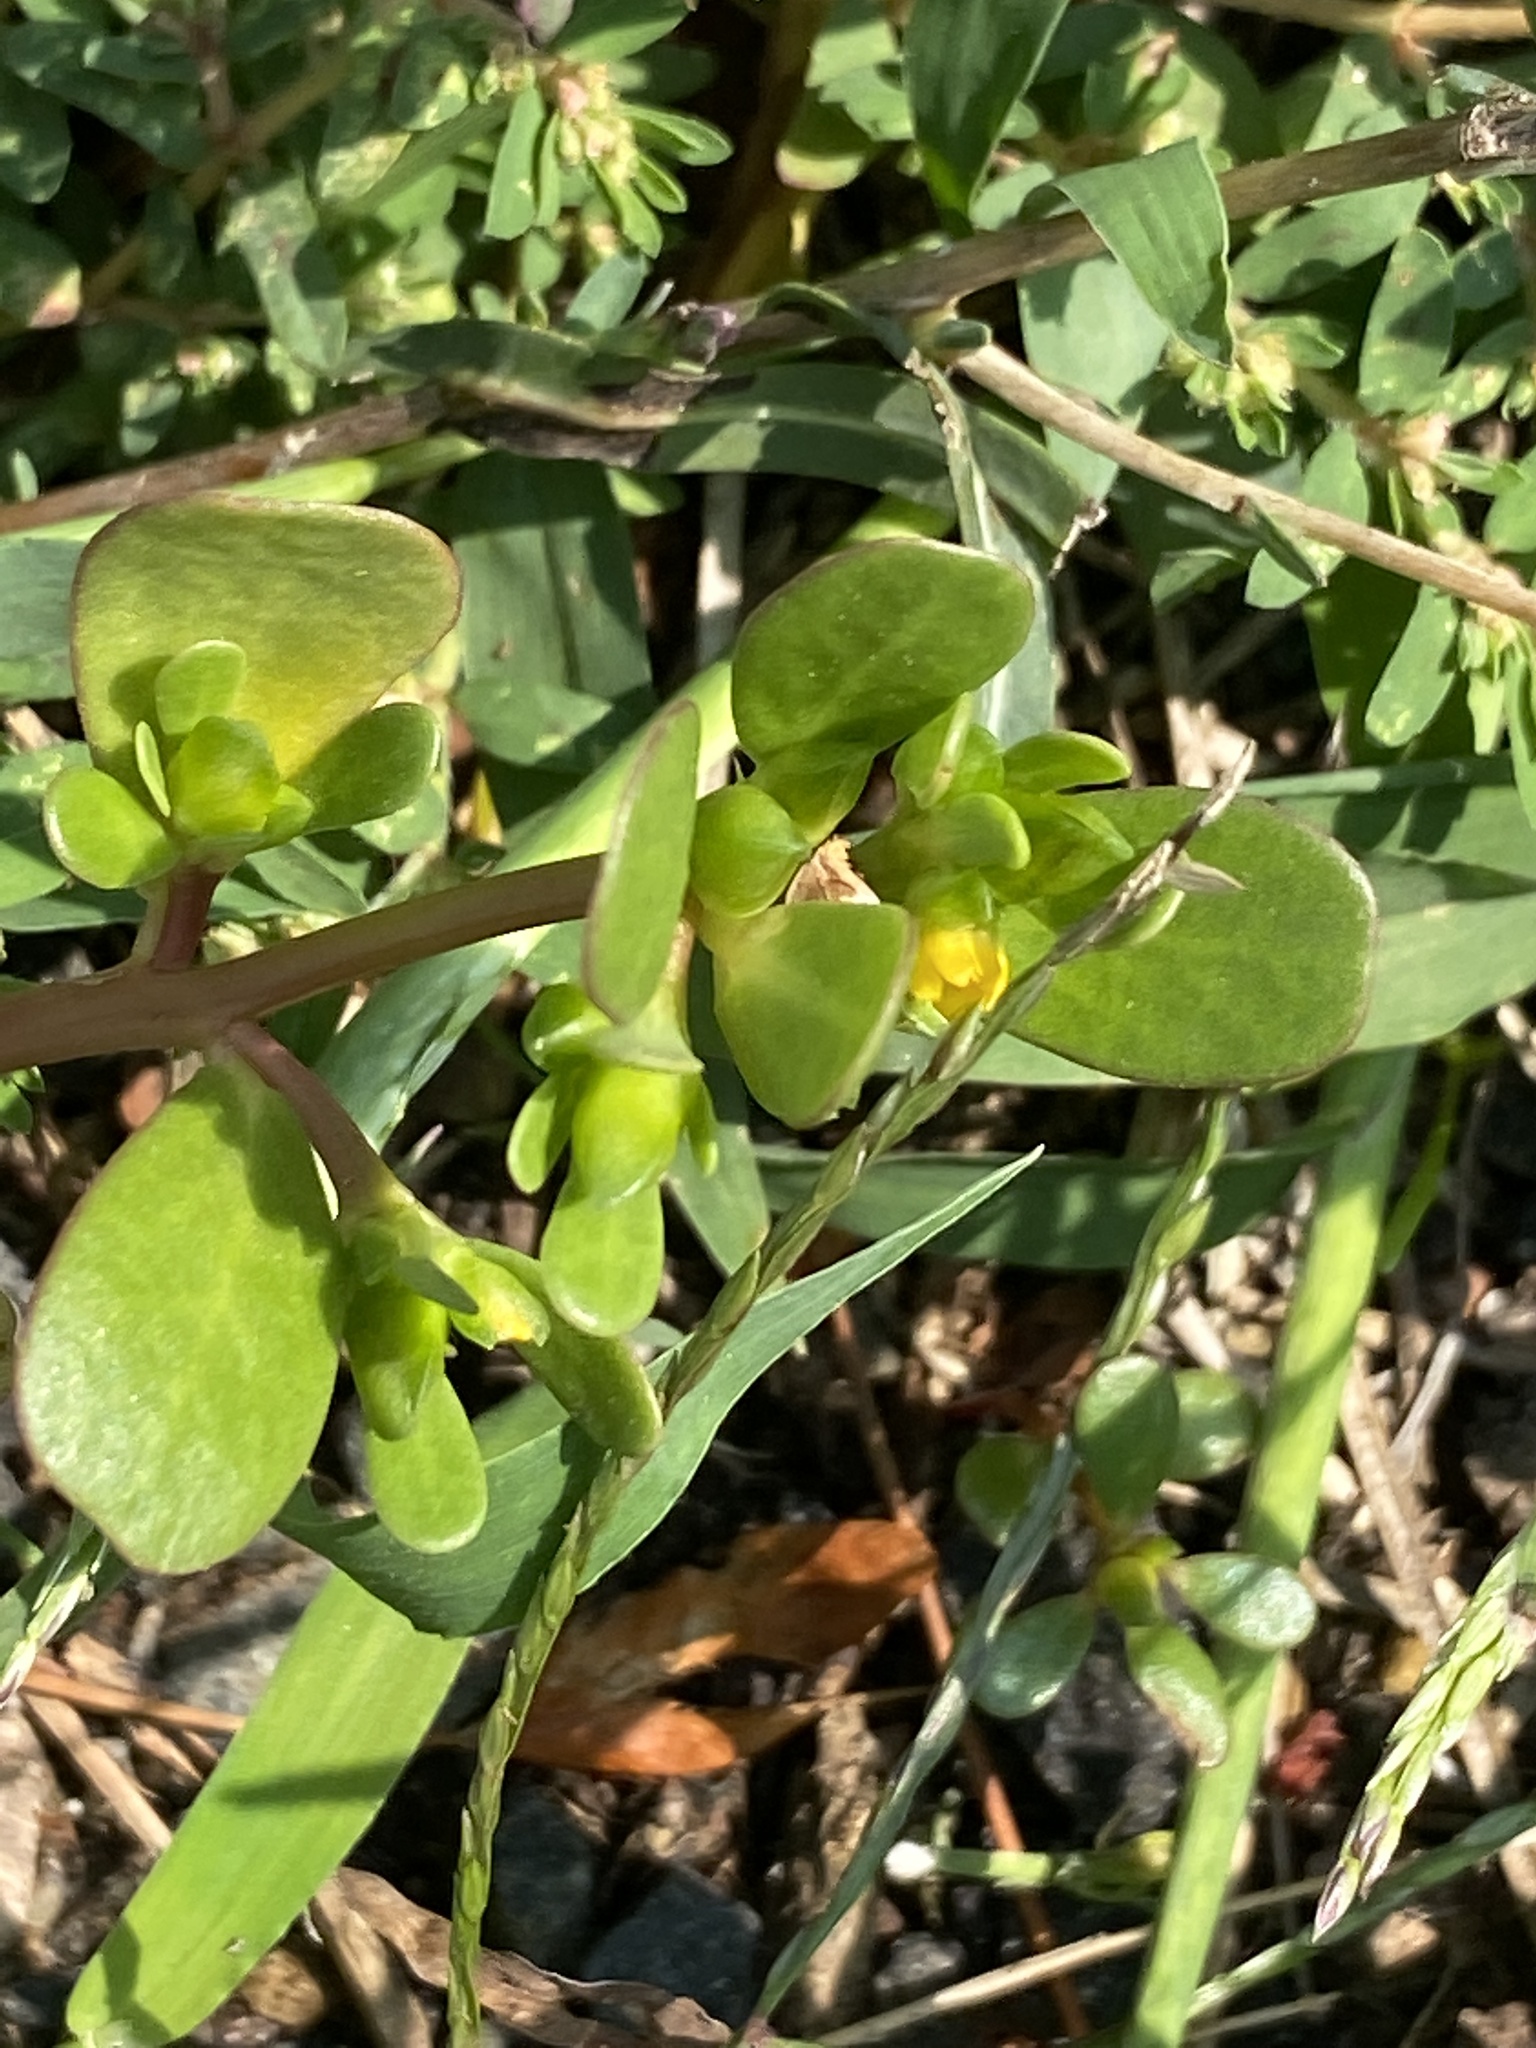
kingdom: Plantae
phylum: Tracheophyta
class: Magnoliopsida
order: Caryophyllales
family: Portulacaceae
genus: Portulaca
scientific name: Portulaca oleracea
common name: Common purslane
